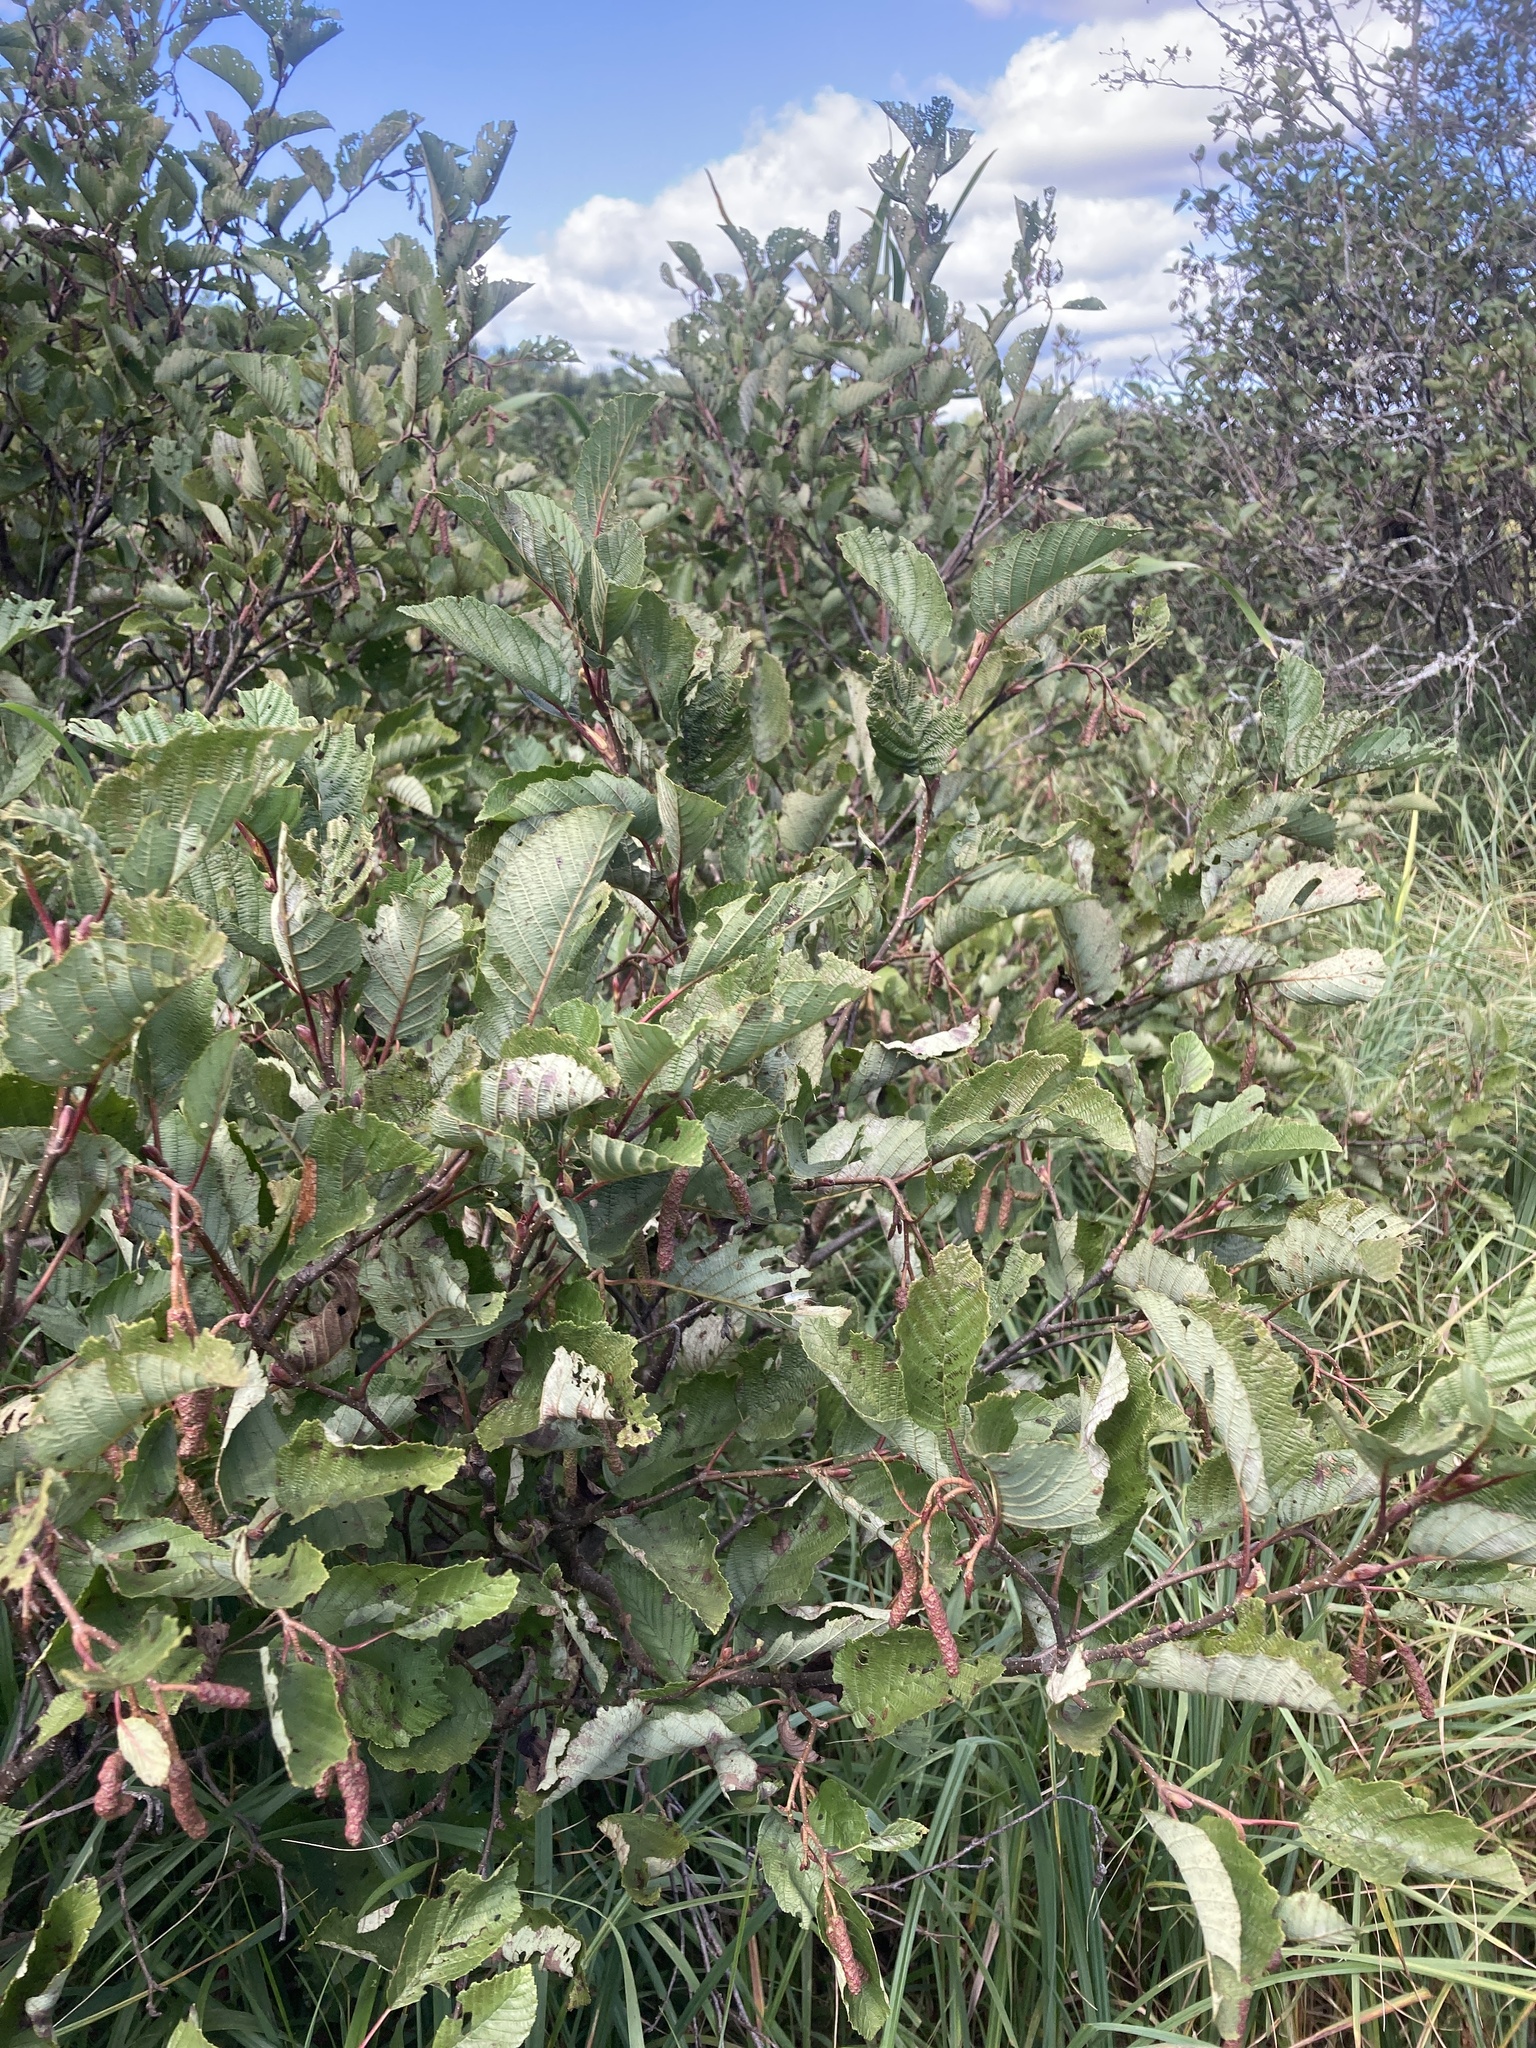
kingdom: Plantae
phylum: Tracheophyta
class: Magnoliopsida
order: Fagales
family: Betulaceae
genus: Alnus
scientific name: Alnus incana
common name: Grey alder
